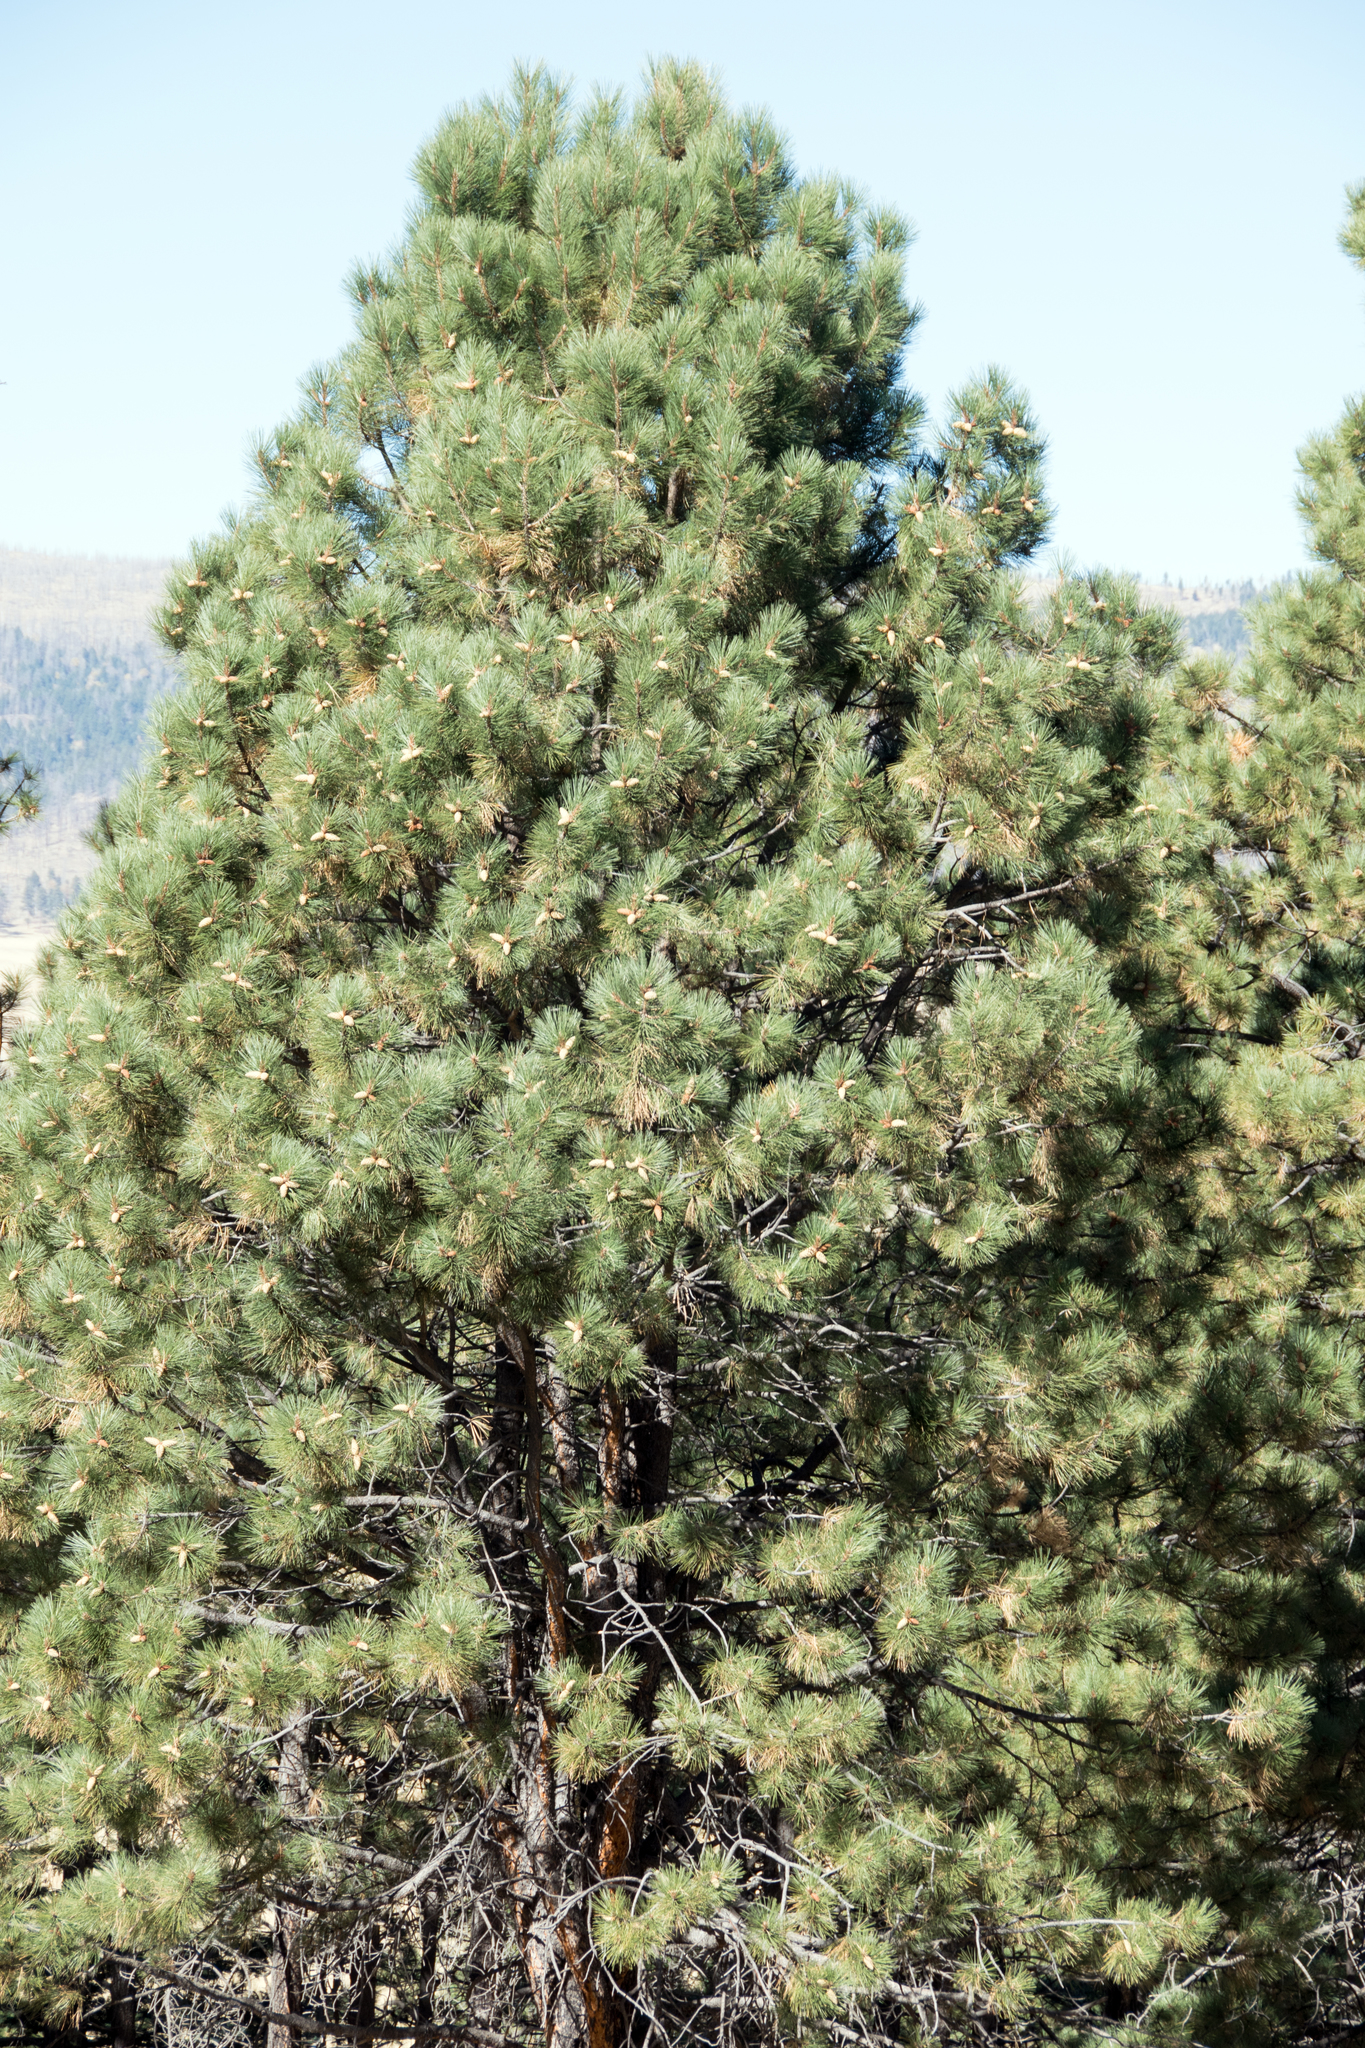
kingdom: Plantae
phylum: Tracheophyta
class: Pinopsida
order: Pinales
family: Pinaceae
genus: Pinus
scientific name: Pinus ponderosa
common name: Western yellow-pine
